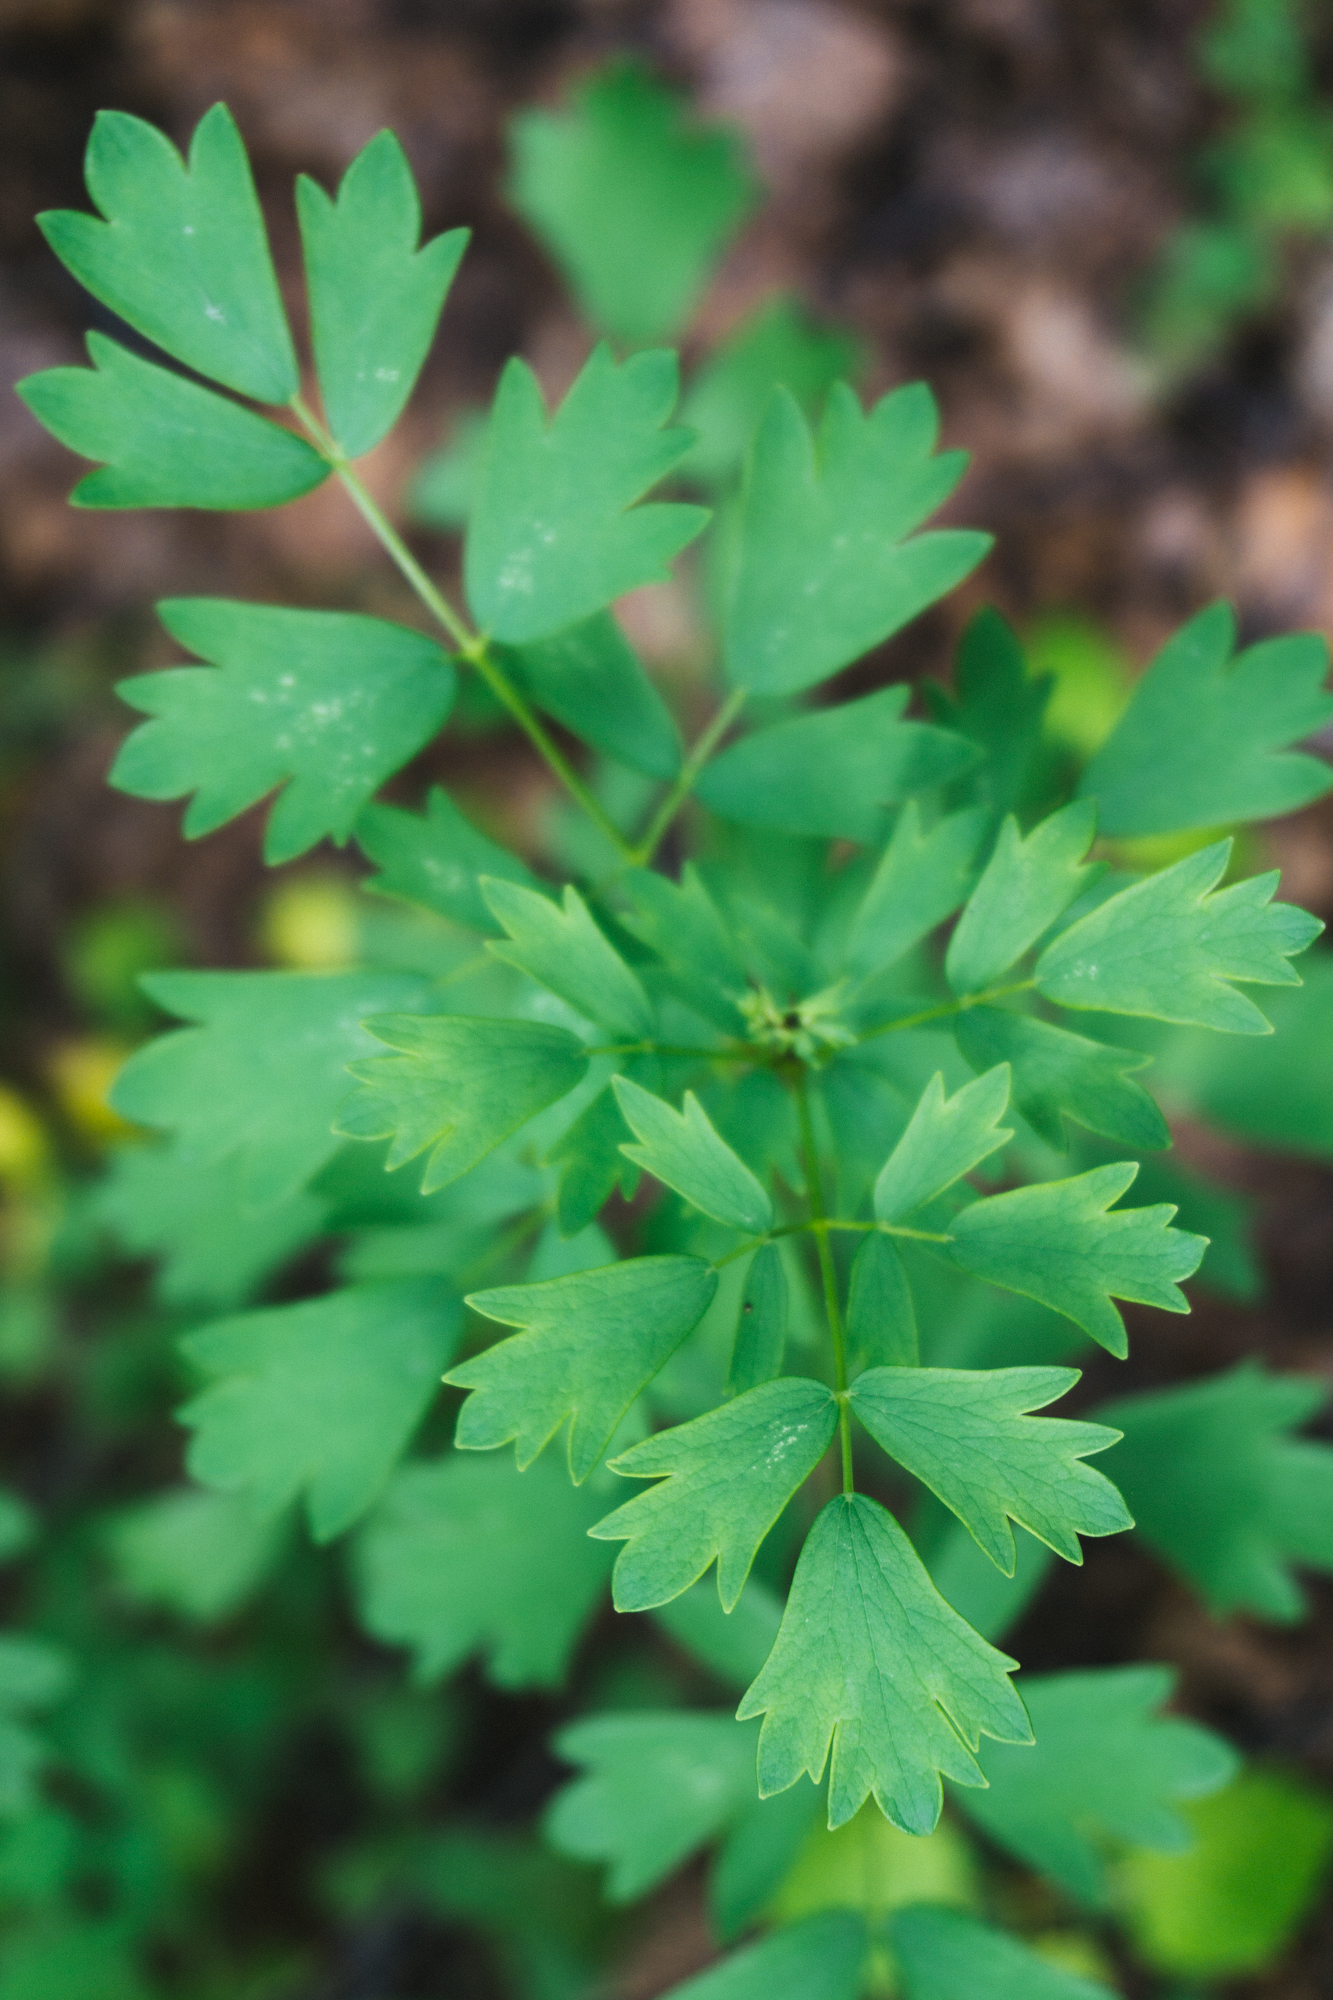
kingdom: Plantae
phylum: Tracheophyta
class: Magnoliopsida
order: Ranunculales
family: Ranunculaceae
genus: Thalictrum
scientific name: Thalictrum simplex
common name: Small meadow-rue
